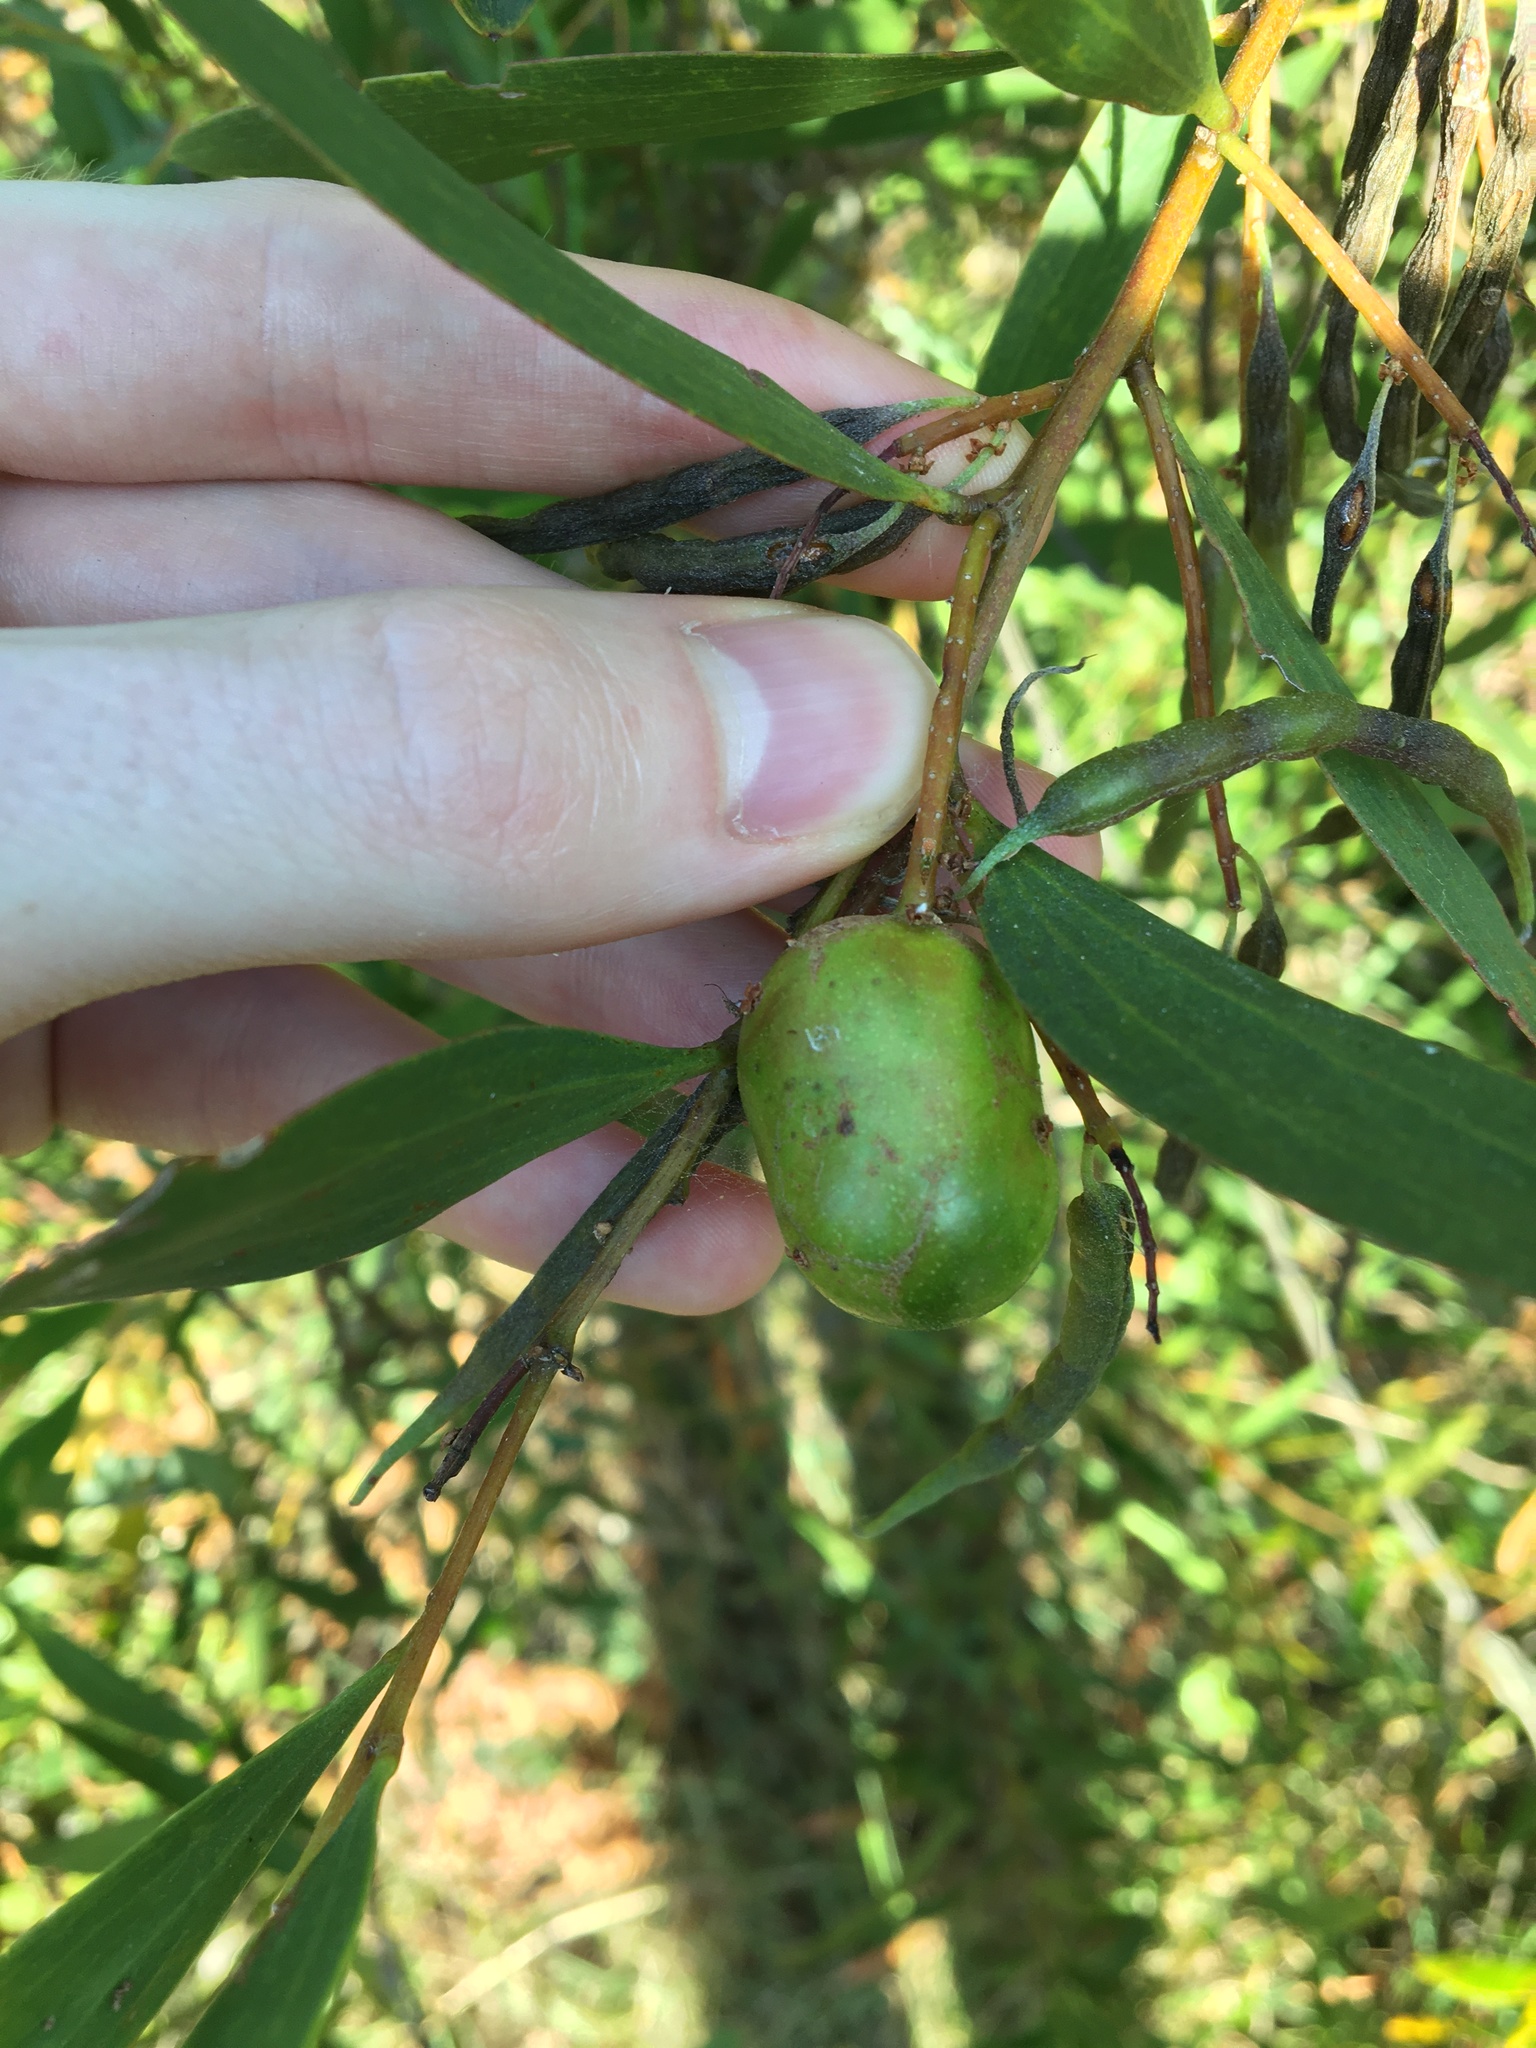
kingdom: Animalia
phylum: Arthropoda
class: Insecta
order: Hymenoptera
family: Pteromalidae
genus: Trichilogaster
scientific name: Trichilogaster acaciaelongifoliae
